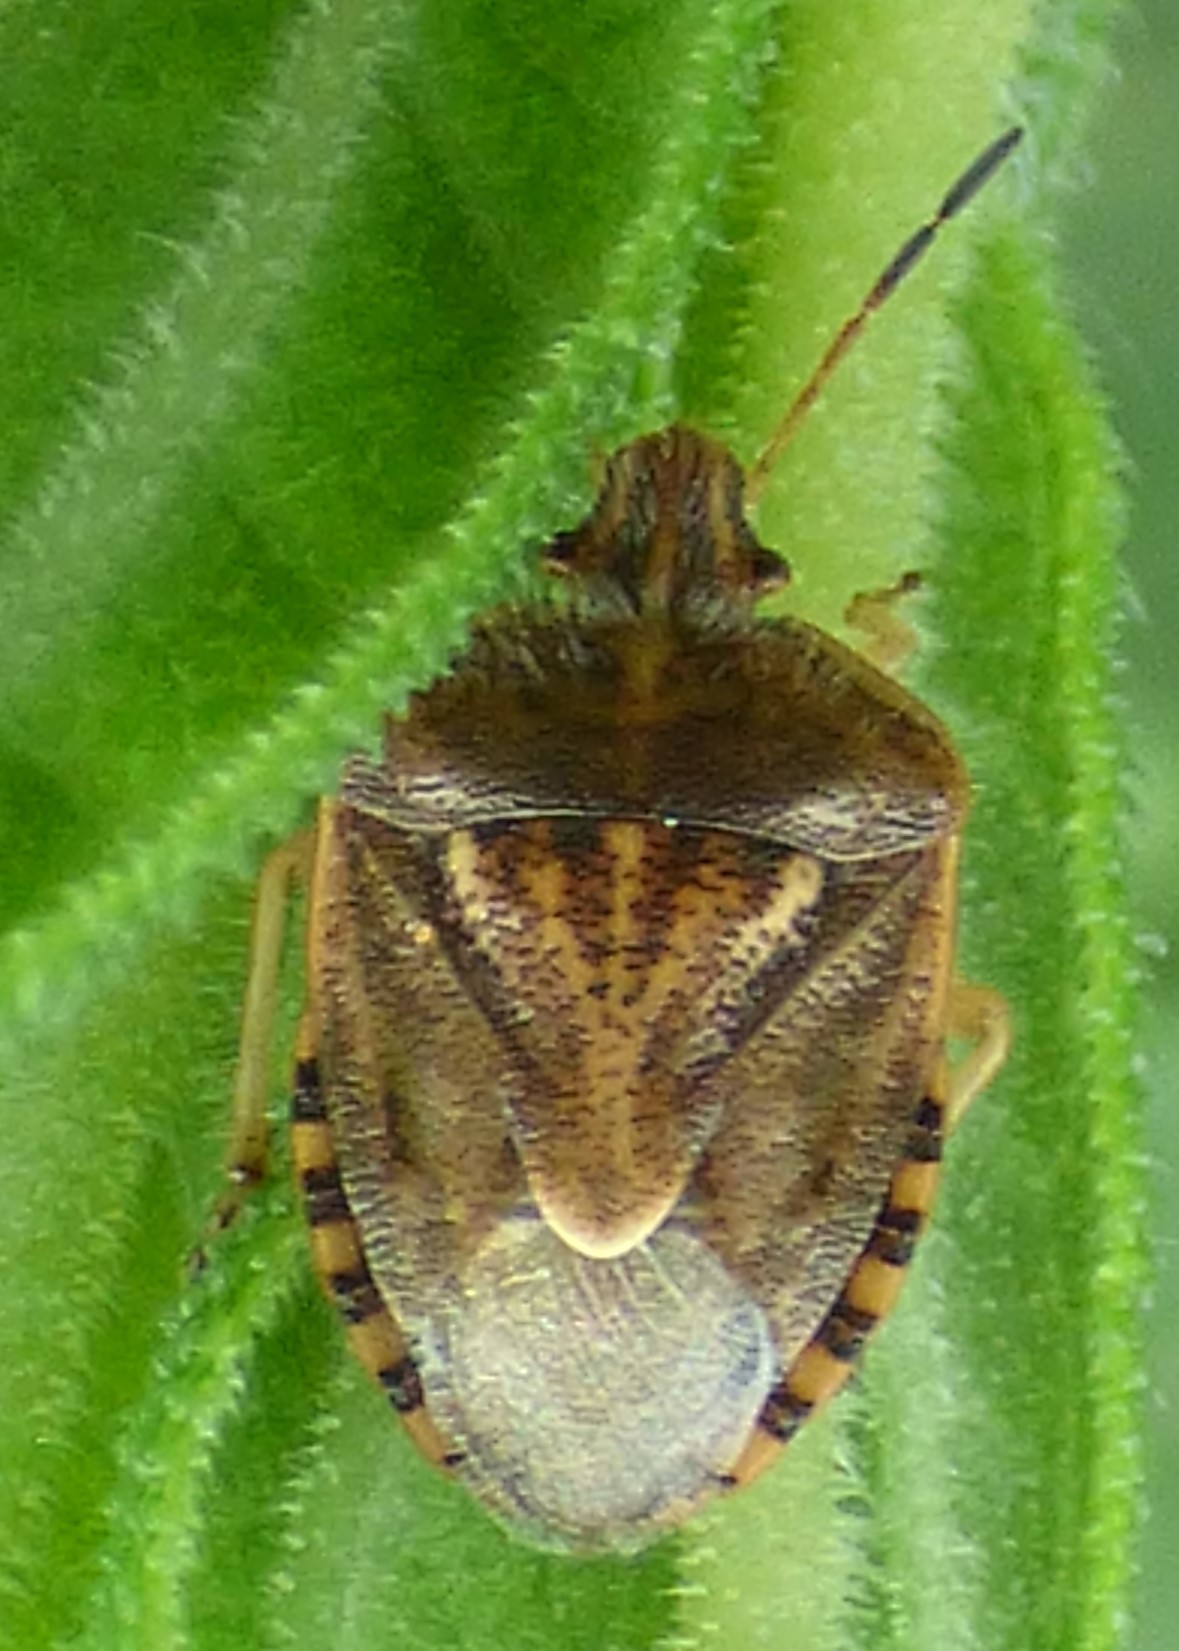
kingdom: Animalia
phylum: Arthropoda
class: Insecta
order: Hemiptera
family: Pentatomidae
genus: Trichopepla
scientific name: Trichopepla semivittata
